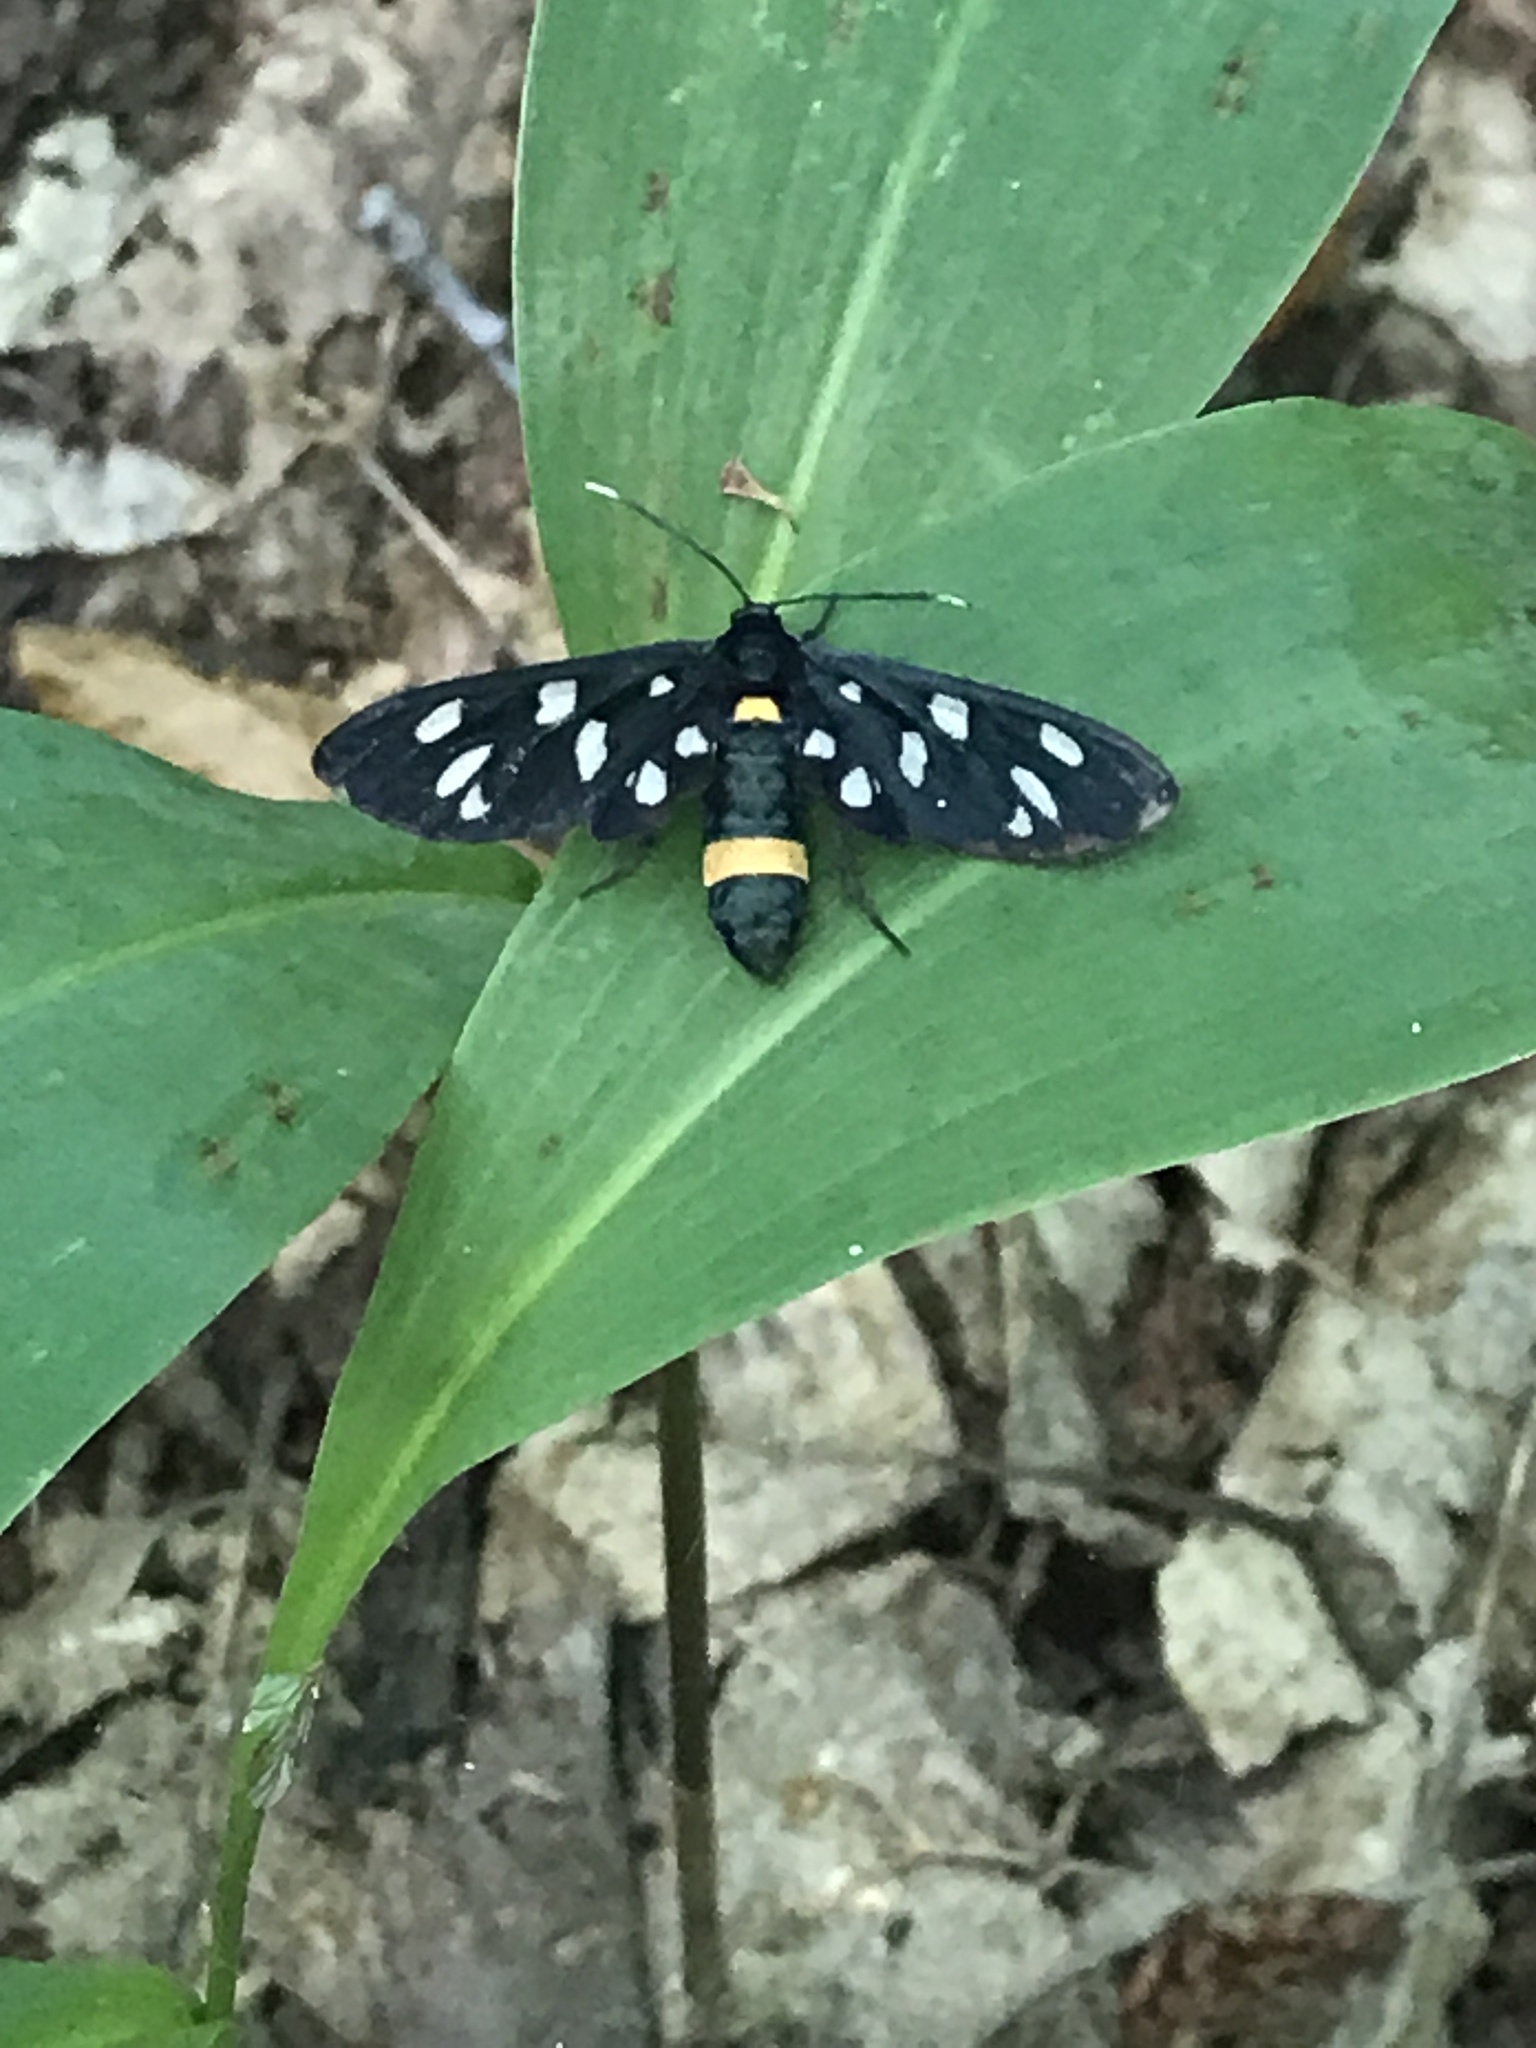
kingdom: Animalia
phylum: Arthropoda
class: Insecta
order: Lepidoptera
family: Erebidae
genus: Amata
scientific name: Amata phegea
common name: Nine-spotted
